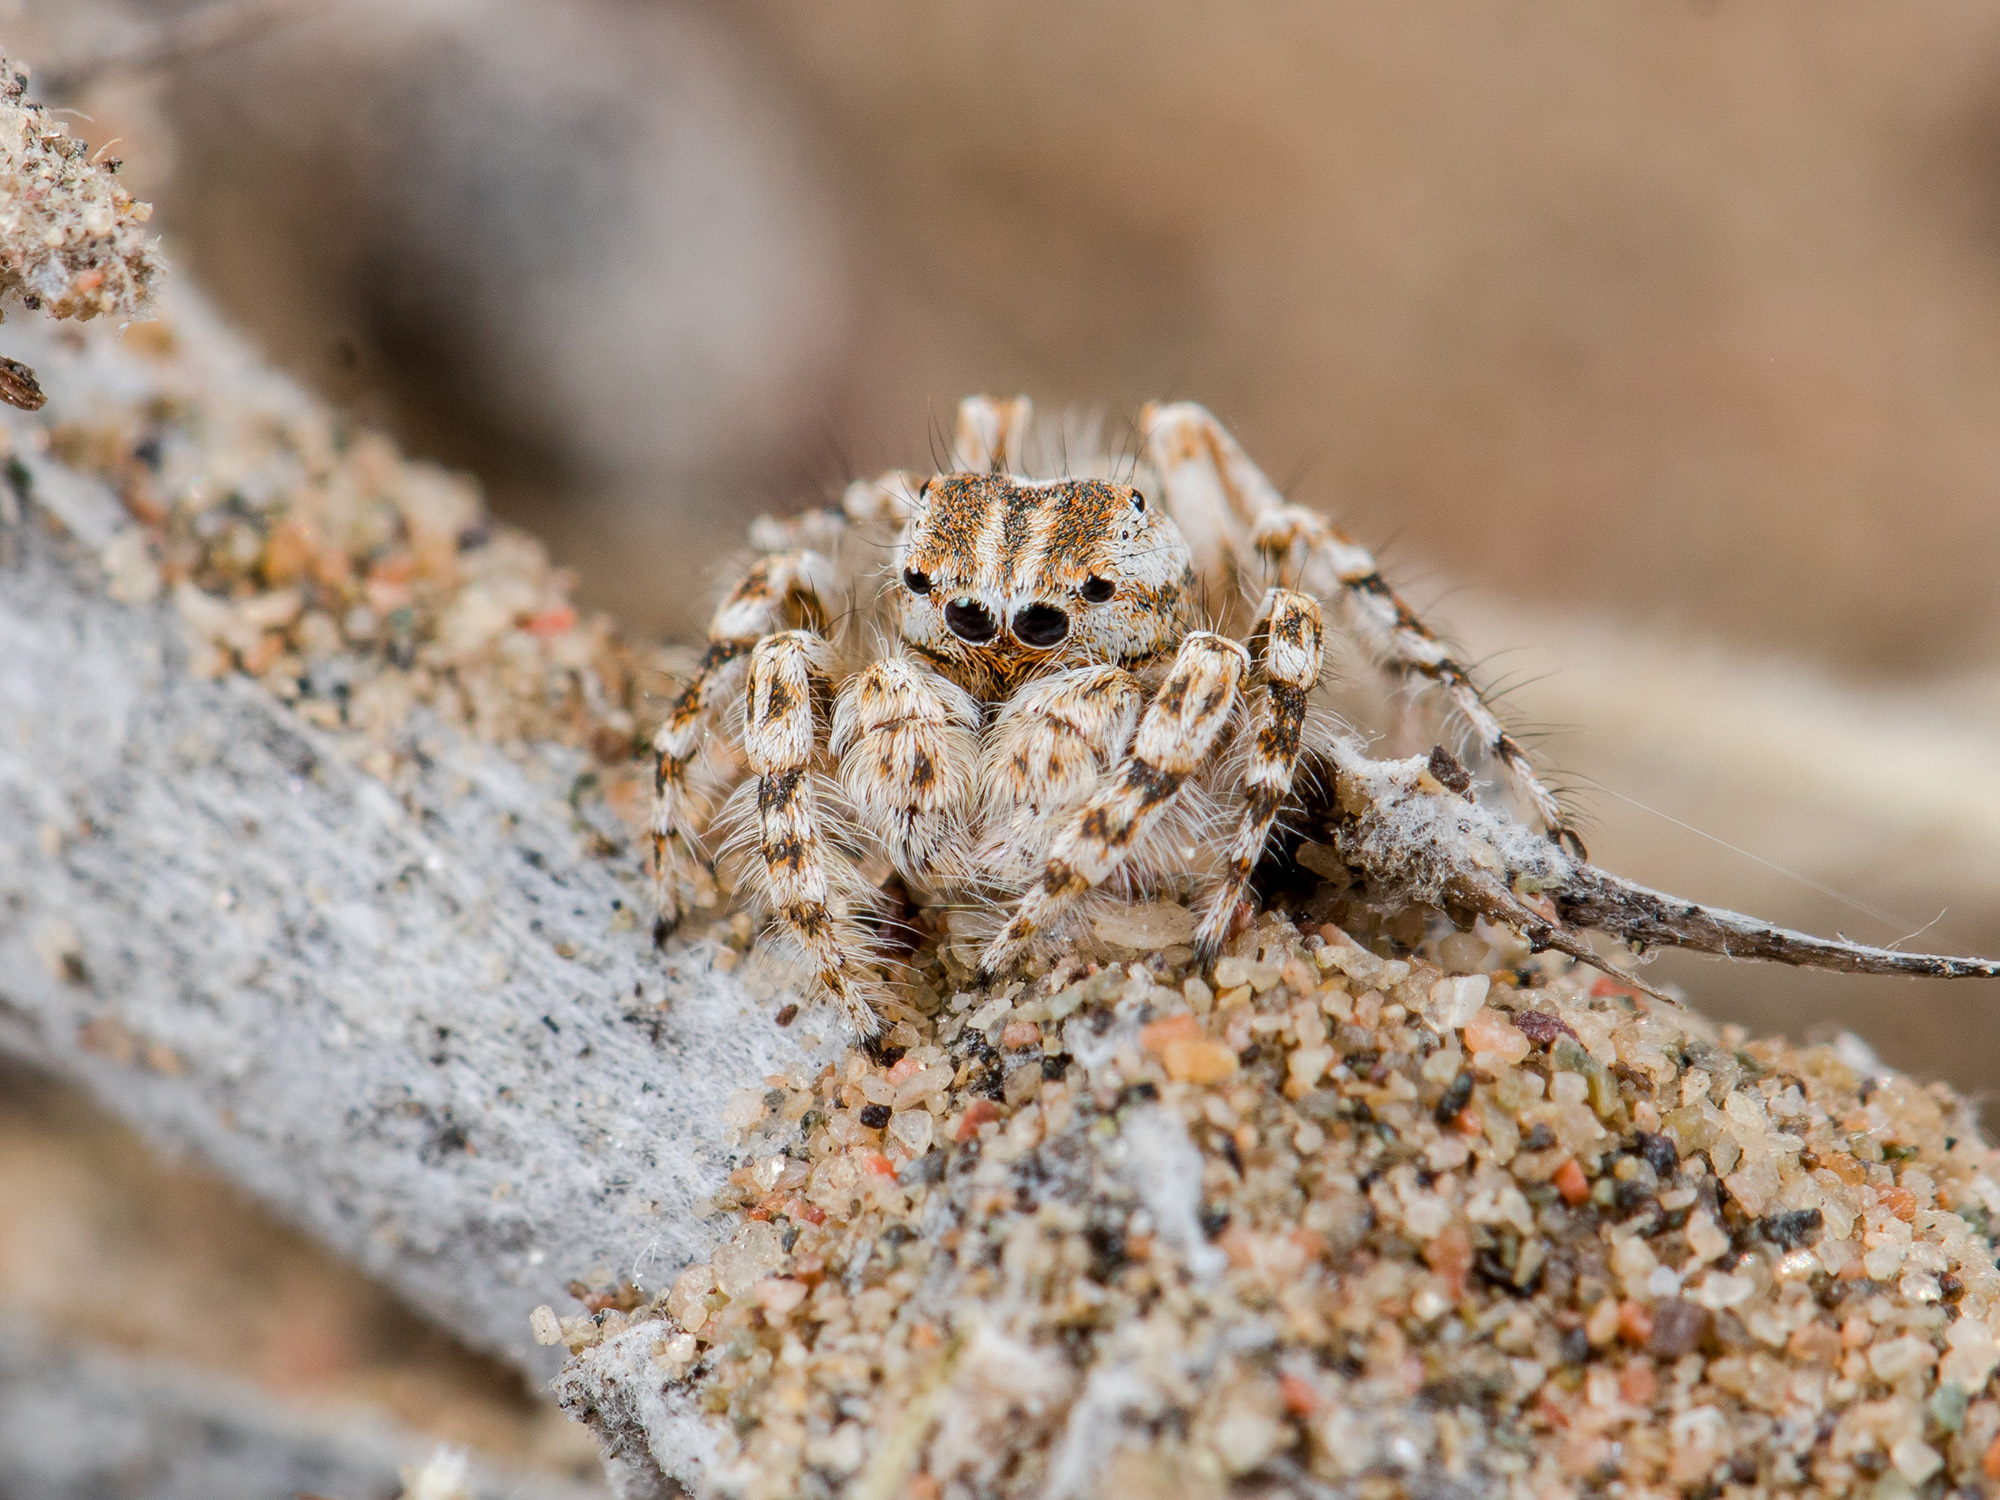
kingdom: Animalia
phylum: Arthropoda
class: Arachnida
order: Araneae
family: Salticidae
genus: Yllenus
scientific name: Yllenus turkestanicus
